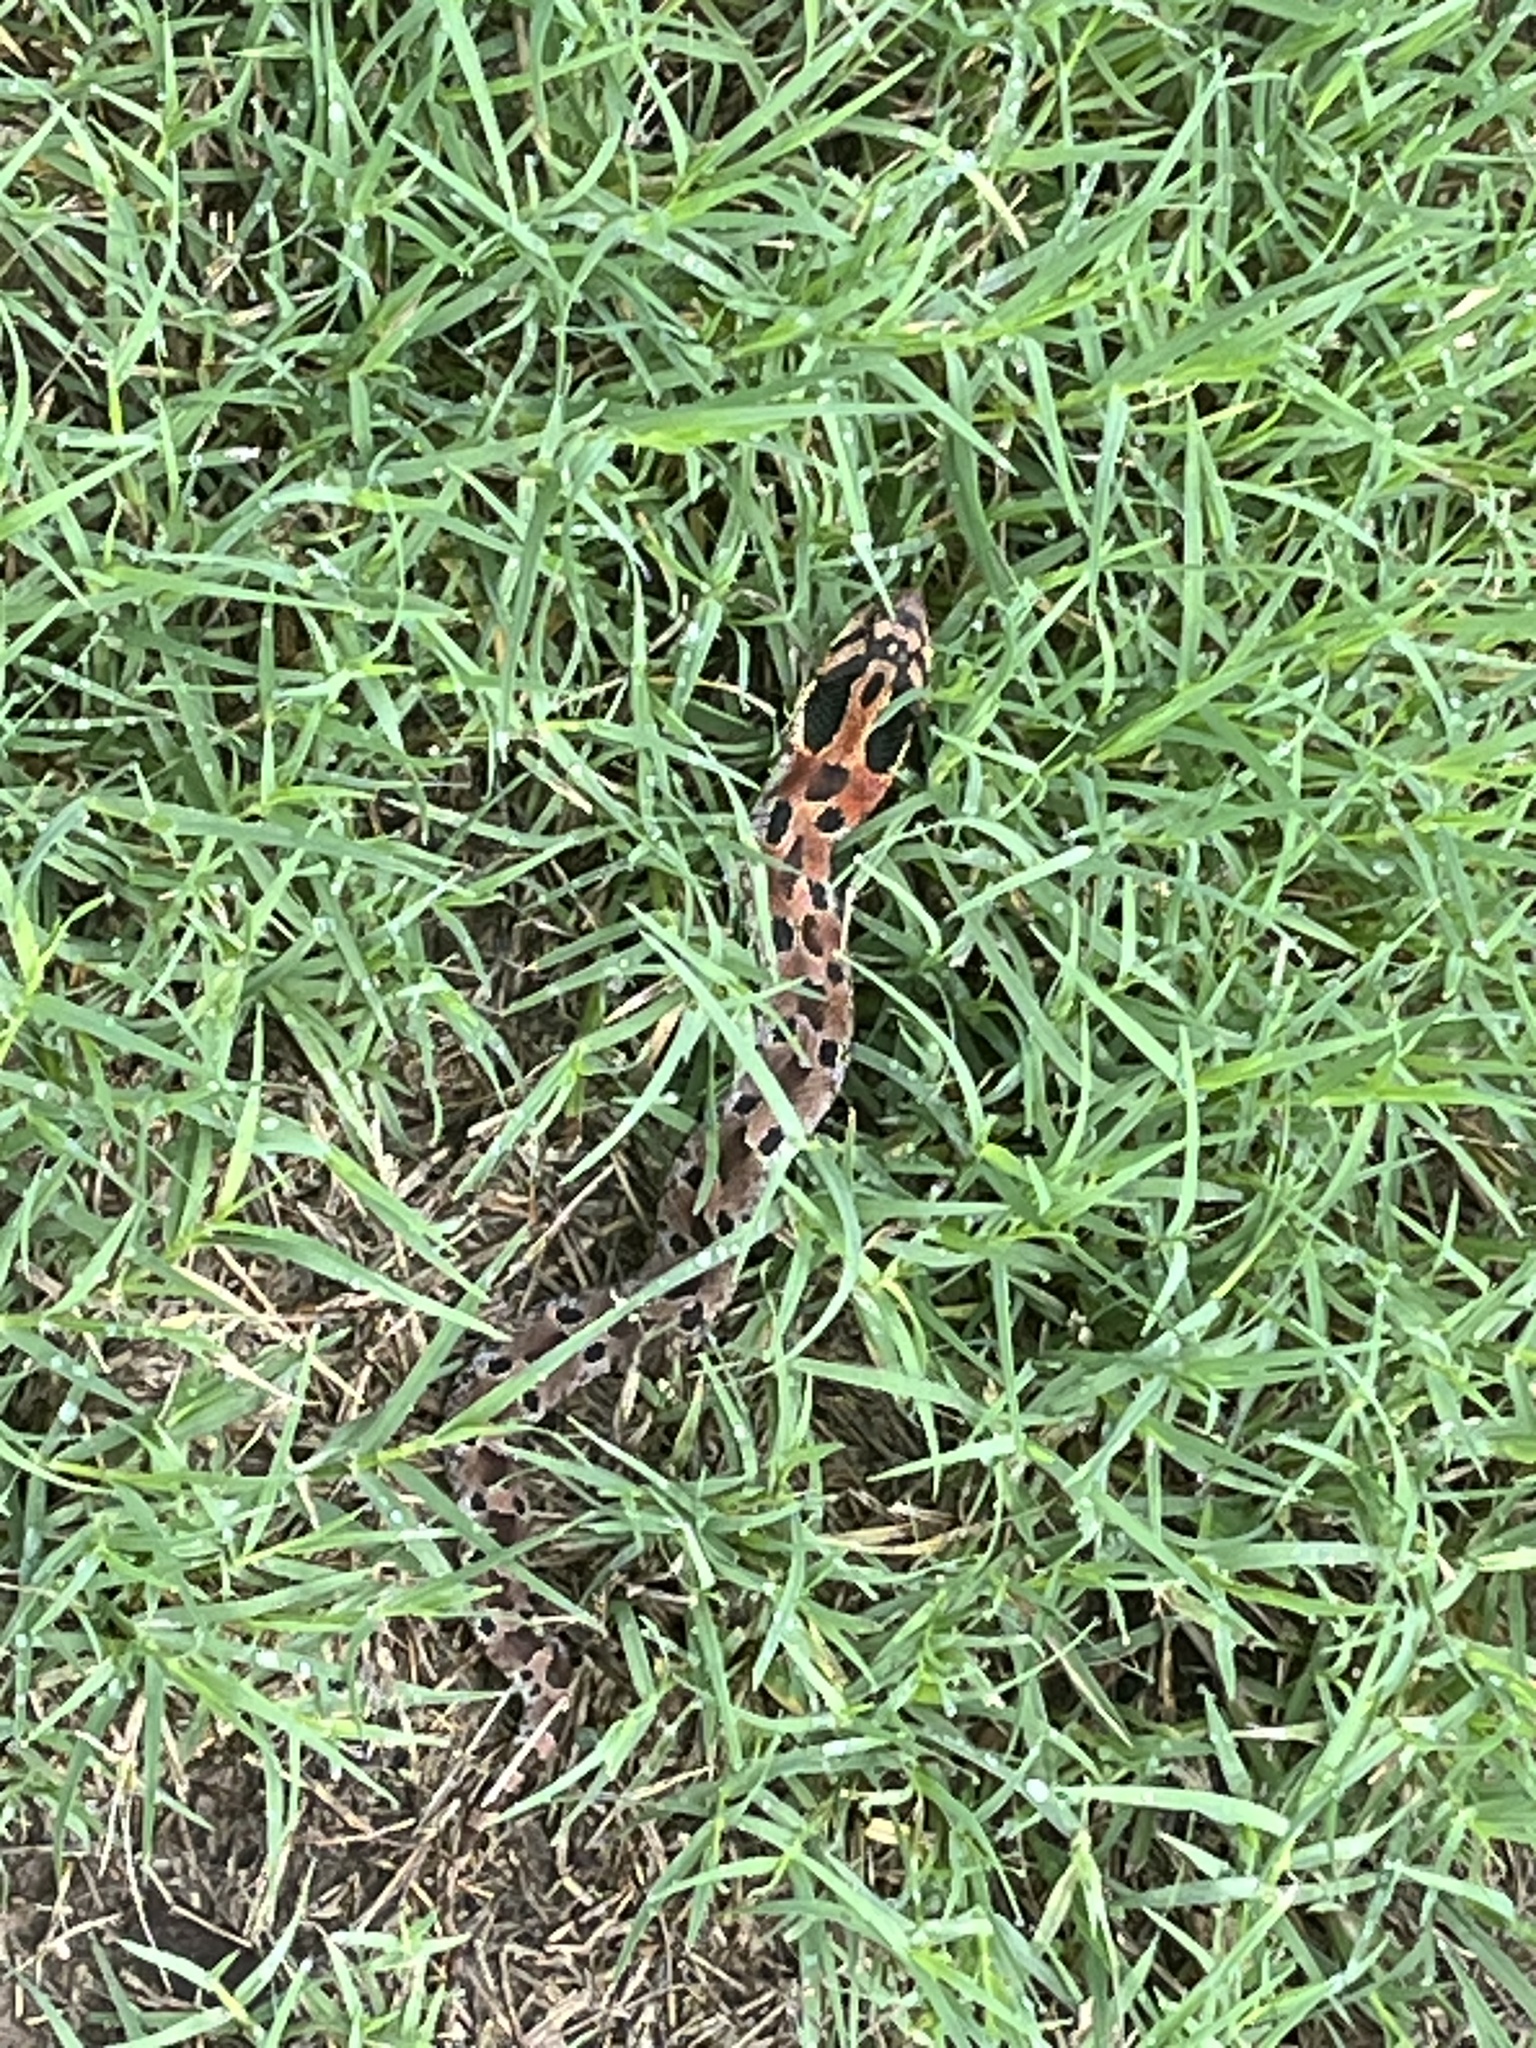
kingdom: Animalia
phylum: Chordata
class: Squamata
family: Colubridae
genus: Heterodon
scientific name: Heterodon platirhinos
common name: Eastern hognose snake
